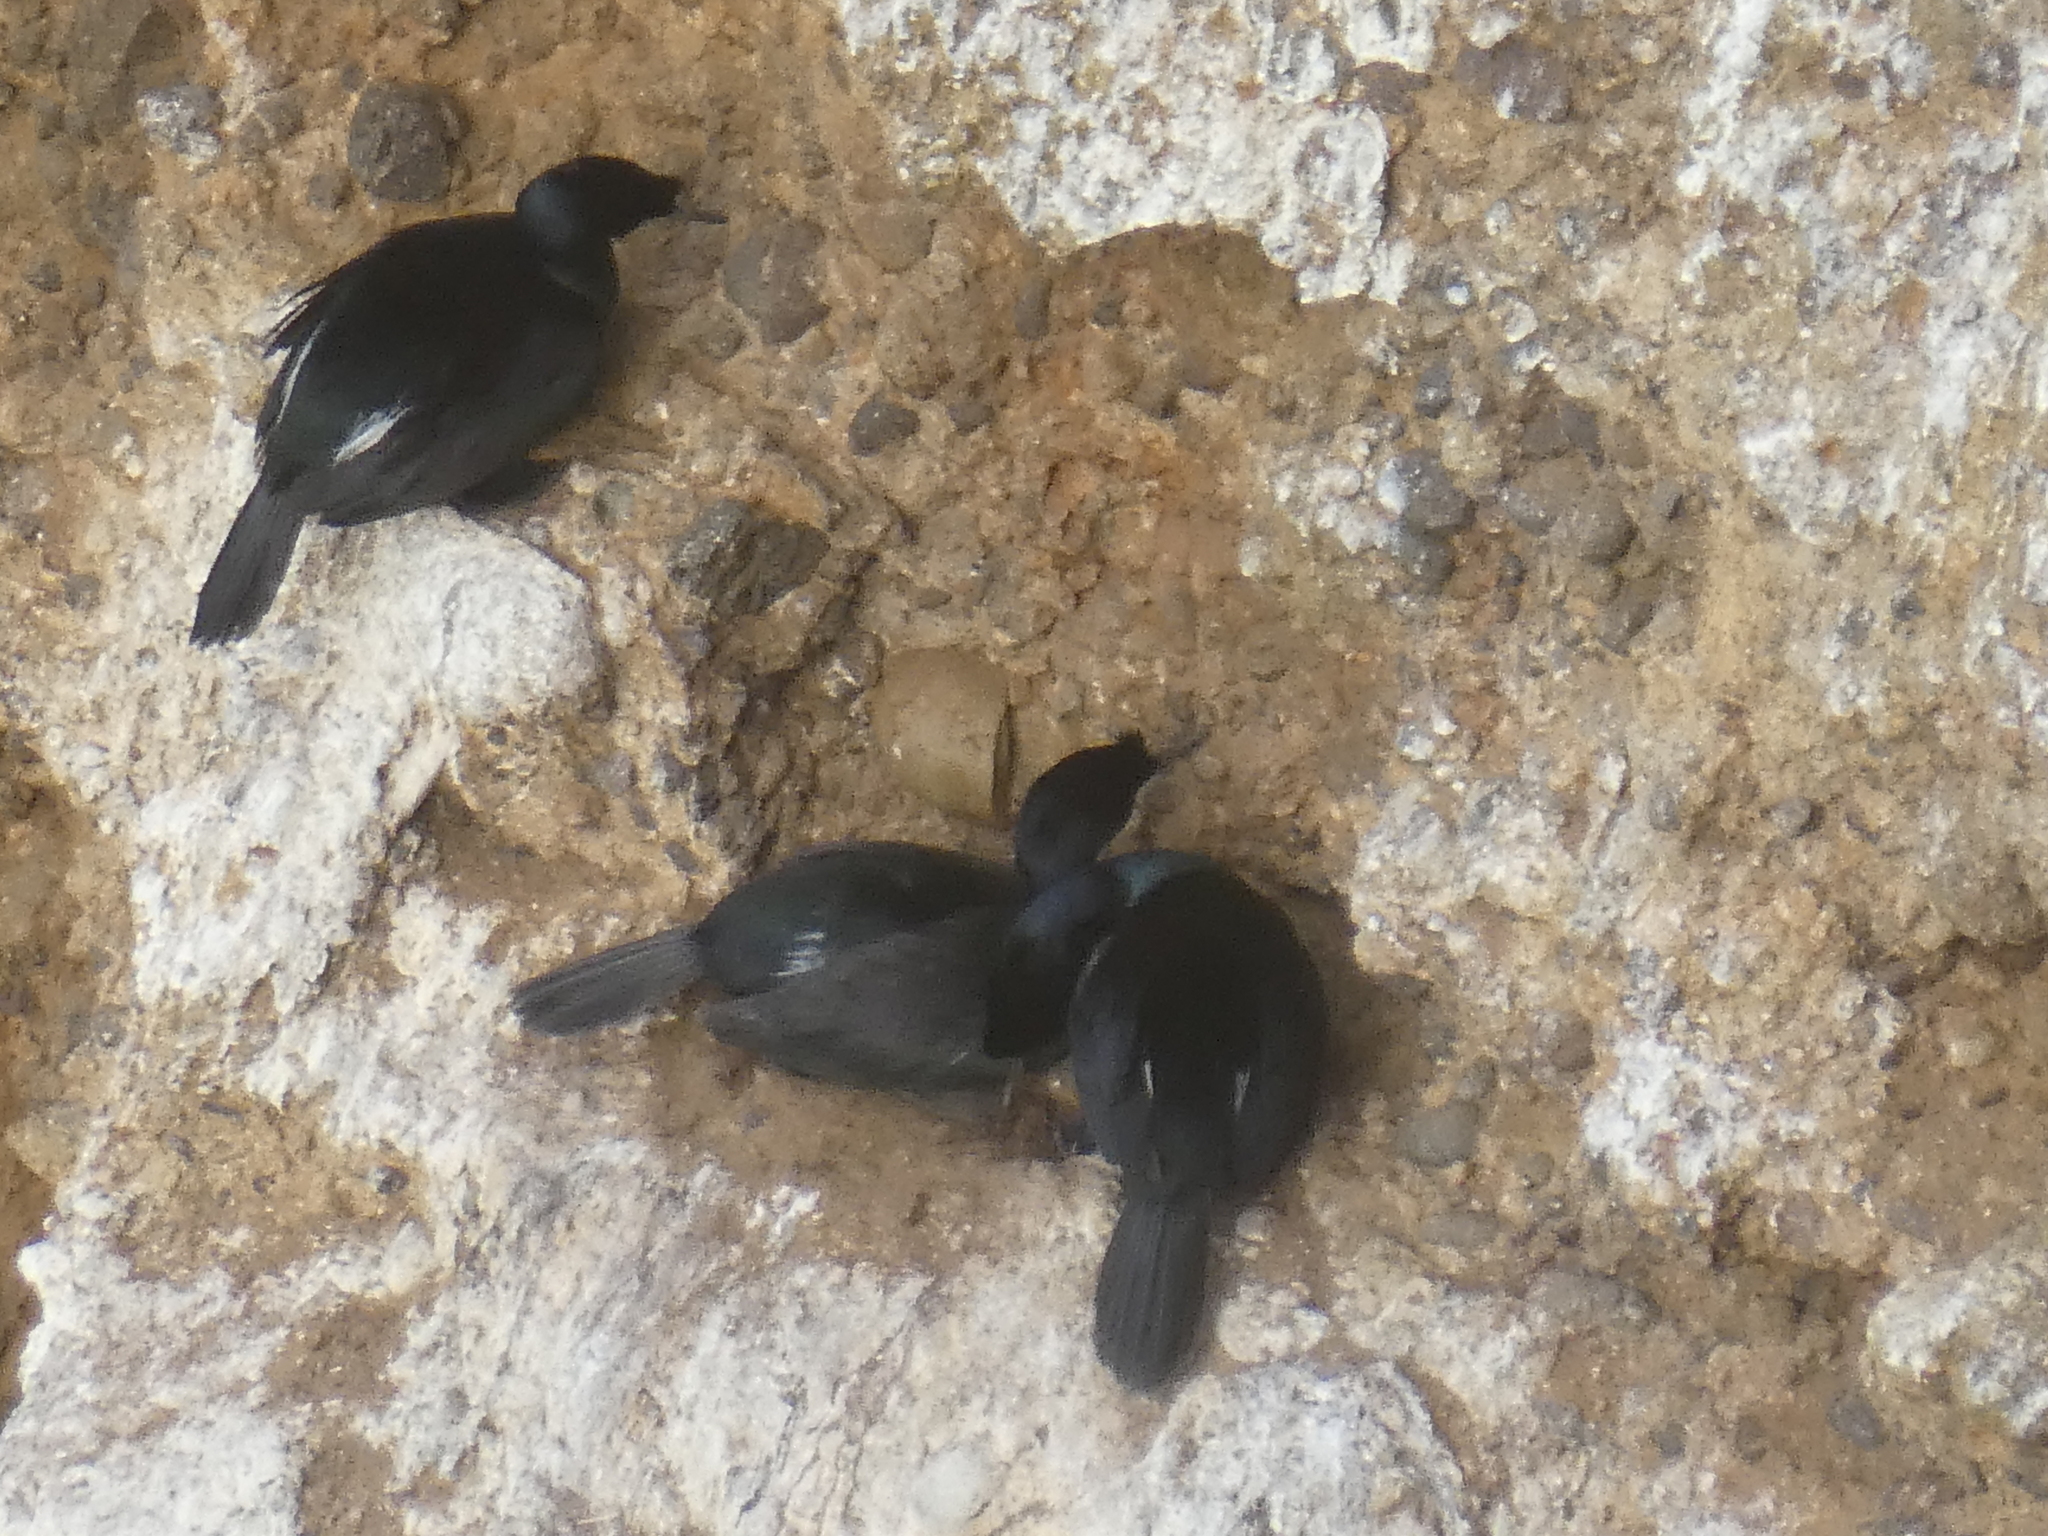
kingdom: Animalia
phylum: Chordata
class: Aves
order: Suliformes
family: Phalacrocoracidae
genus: Phalacrocorax
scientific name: Phalacrocorax pelagicus
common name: Pelagic cormorant
